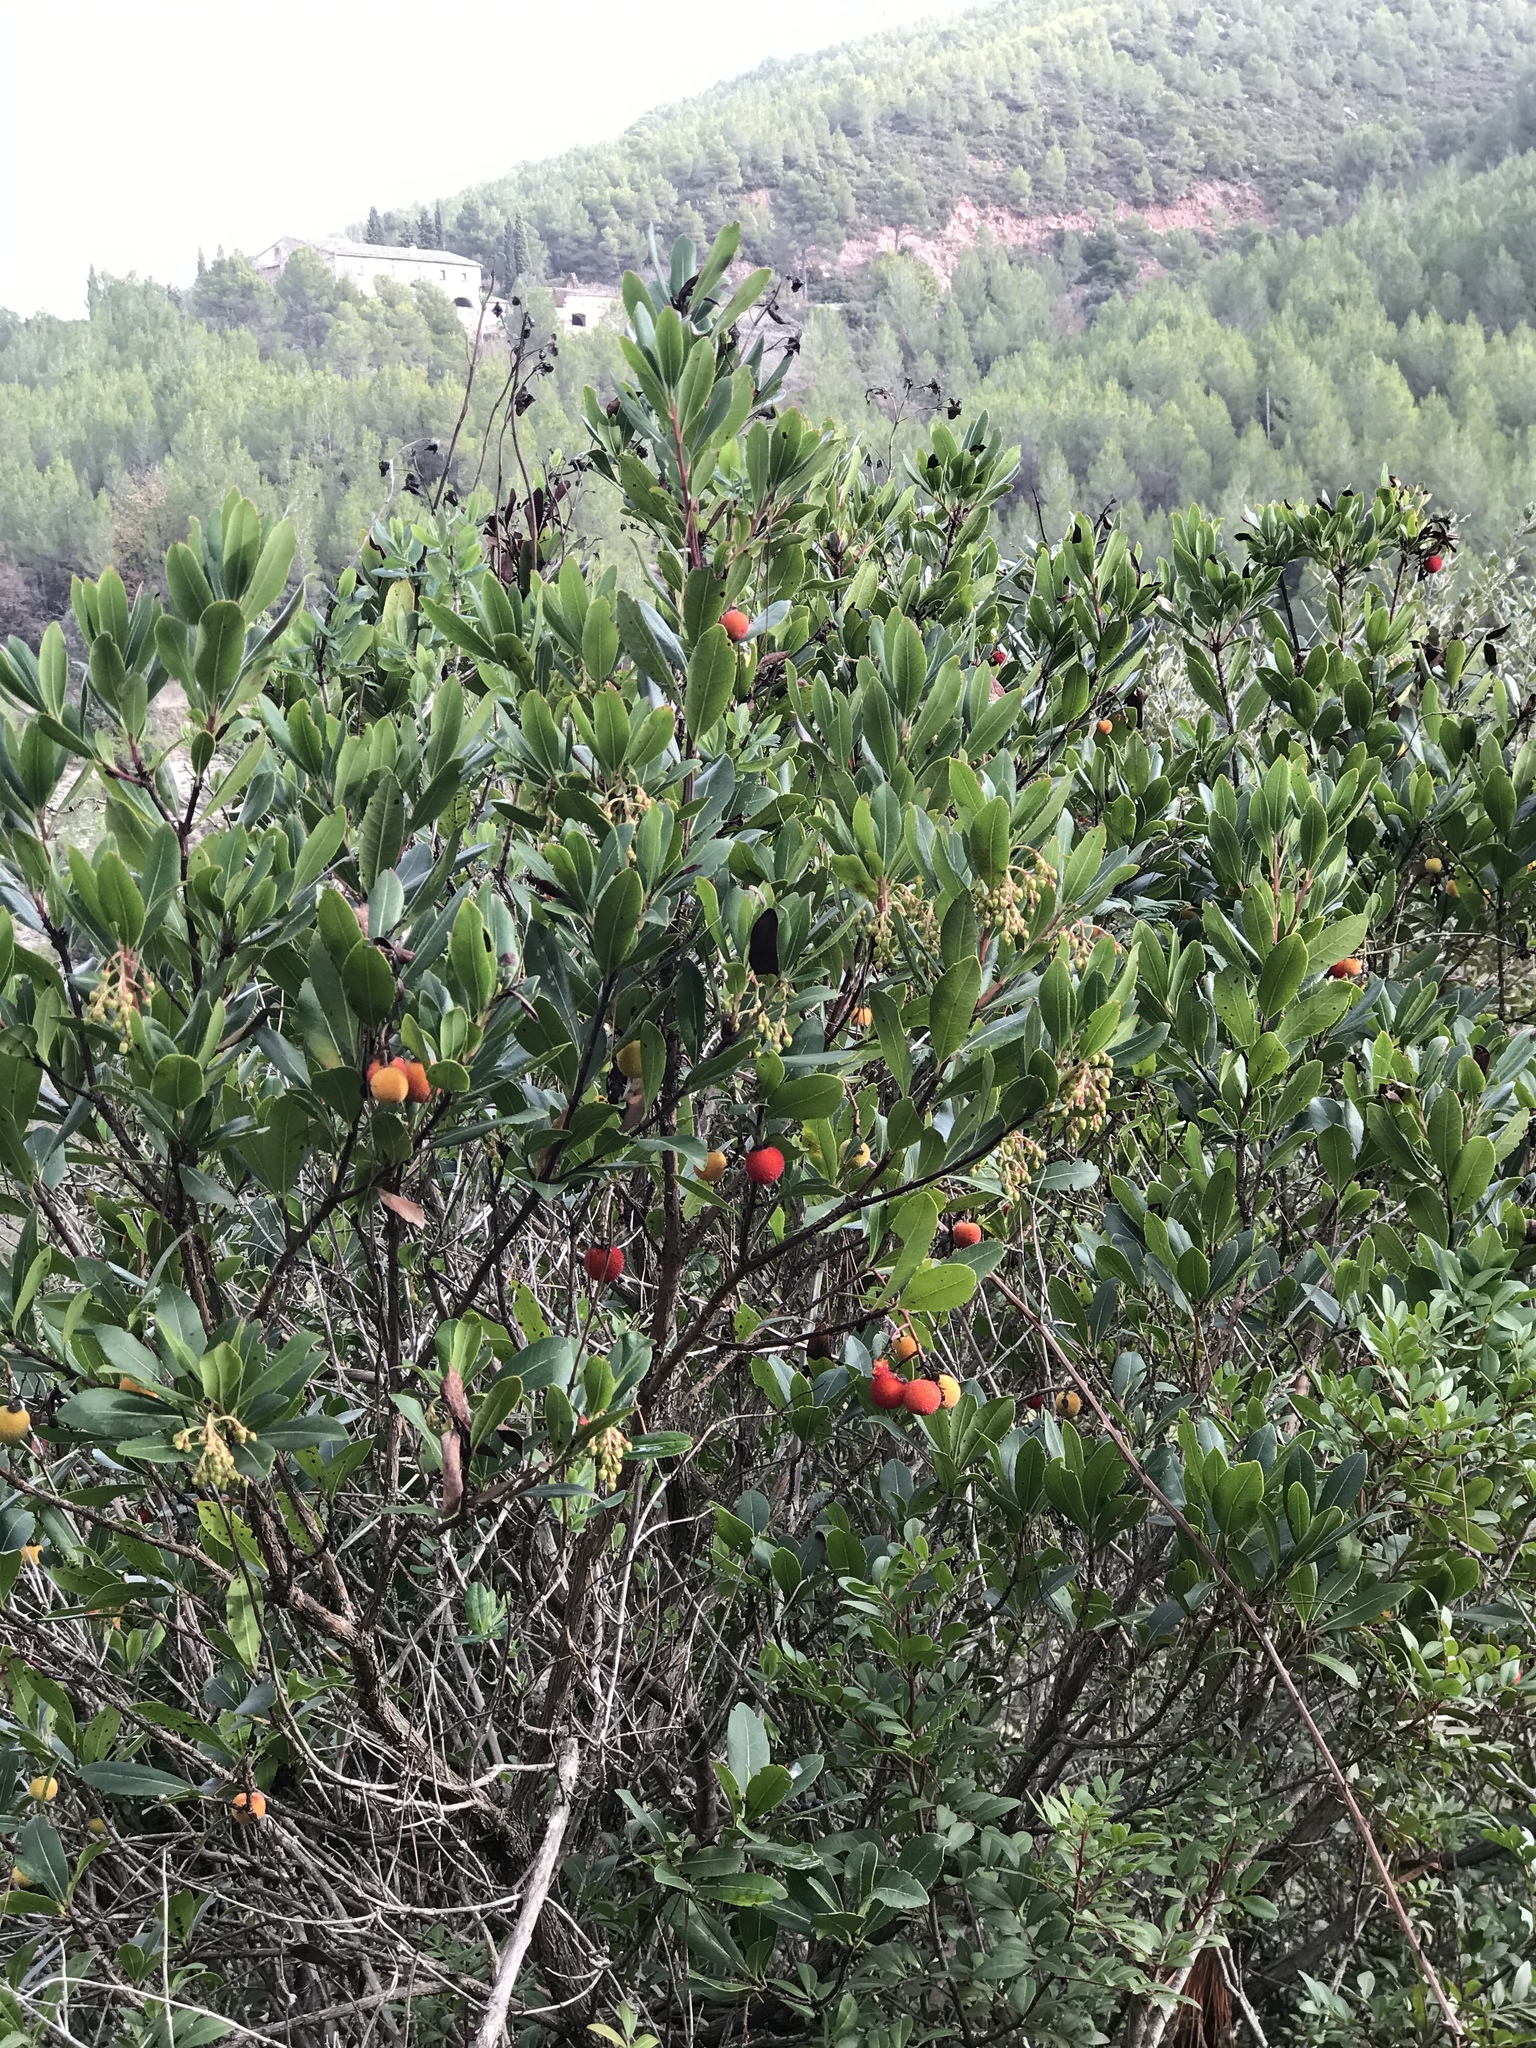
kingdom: Plantae
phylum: Tracheophyta
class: Magnoliopsida
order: Ericales
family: Ericaceae
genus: Arbutus
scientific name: Arbutus unedo
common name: Strawberry-tree
